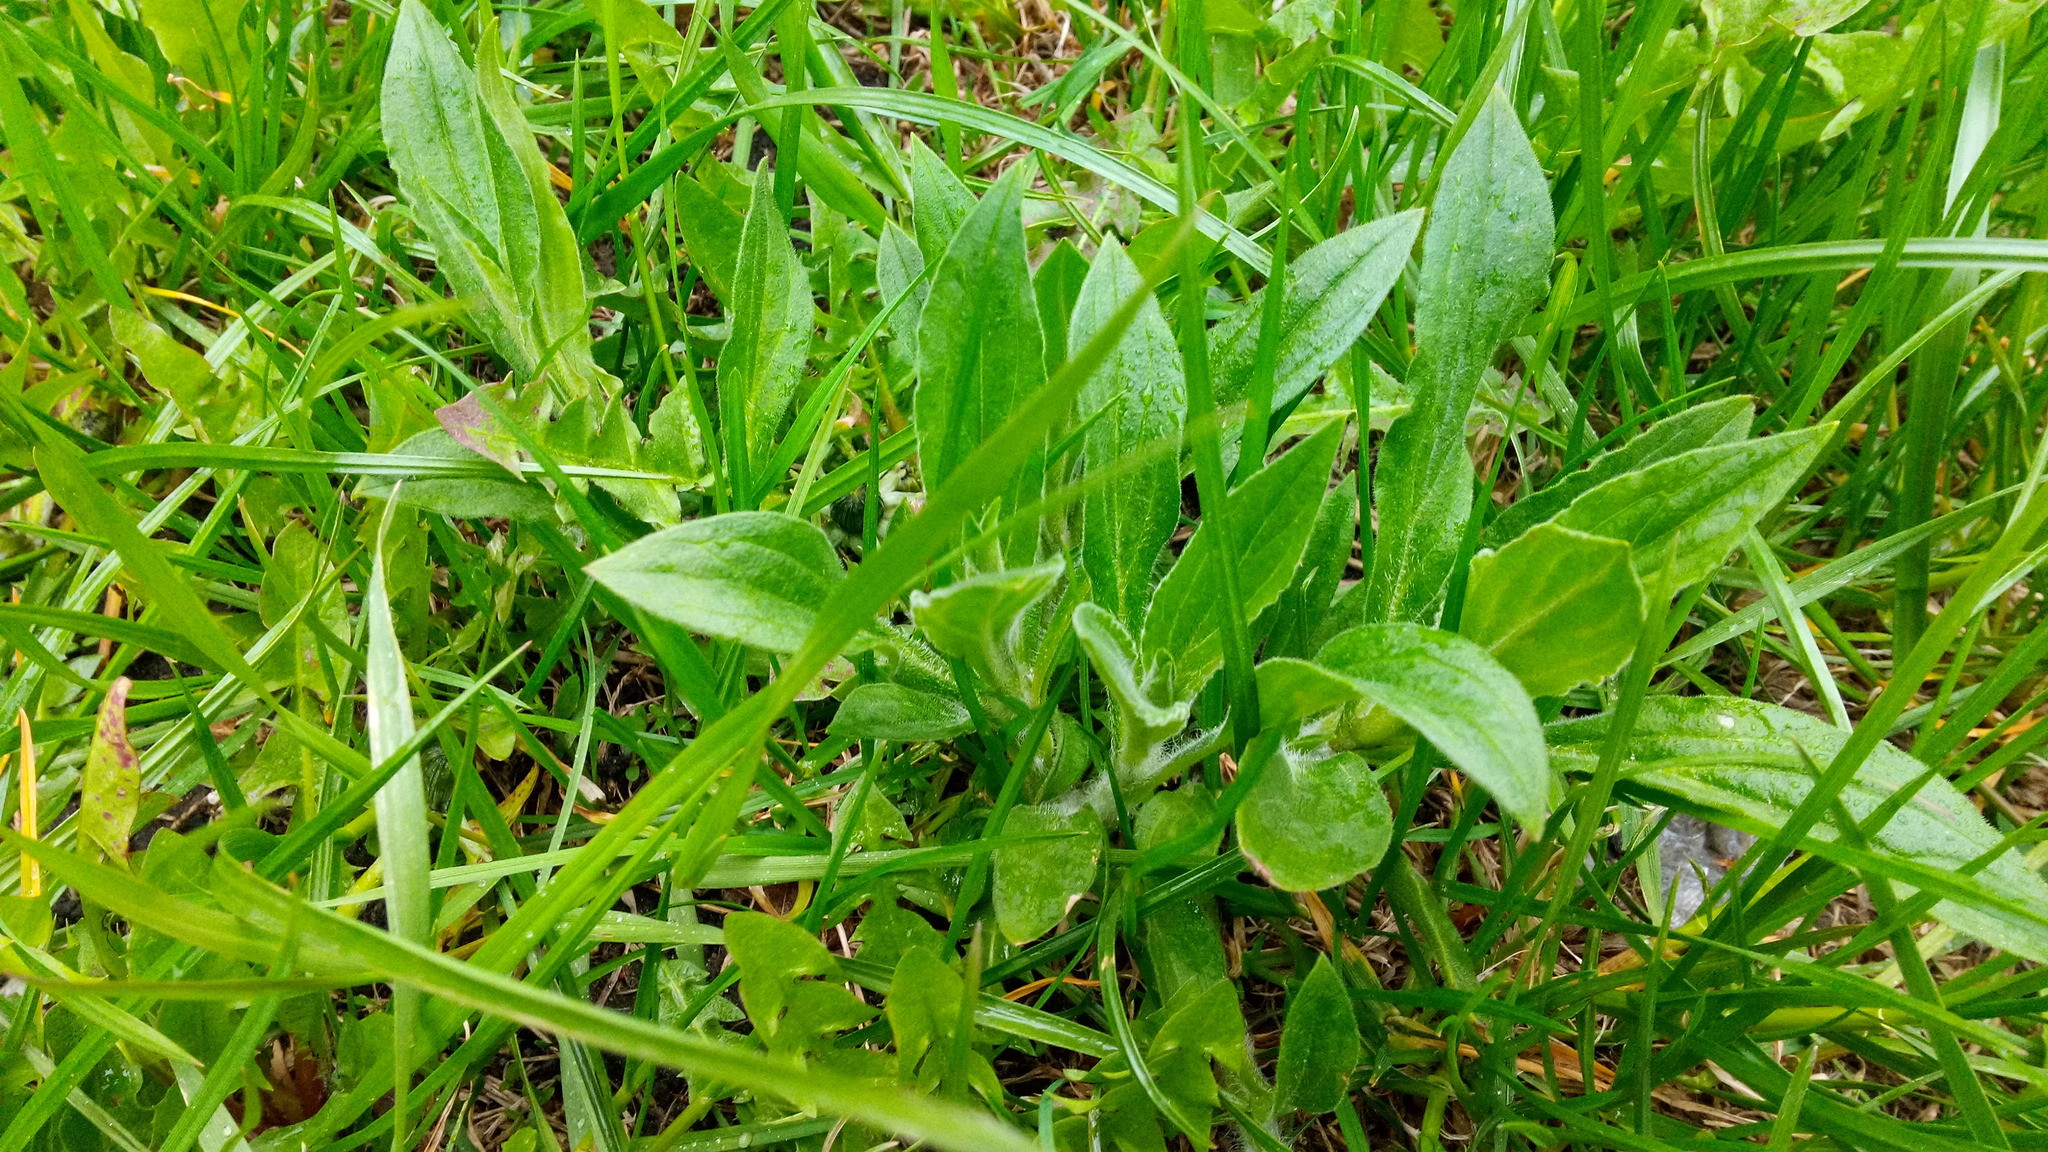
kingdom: Plantae
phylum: Tracheophyta
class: Magnoliopsida
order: Caryophyllales
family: Caryophyllaceae
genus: Silene
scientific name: Silene latifolia
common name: White campion
